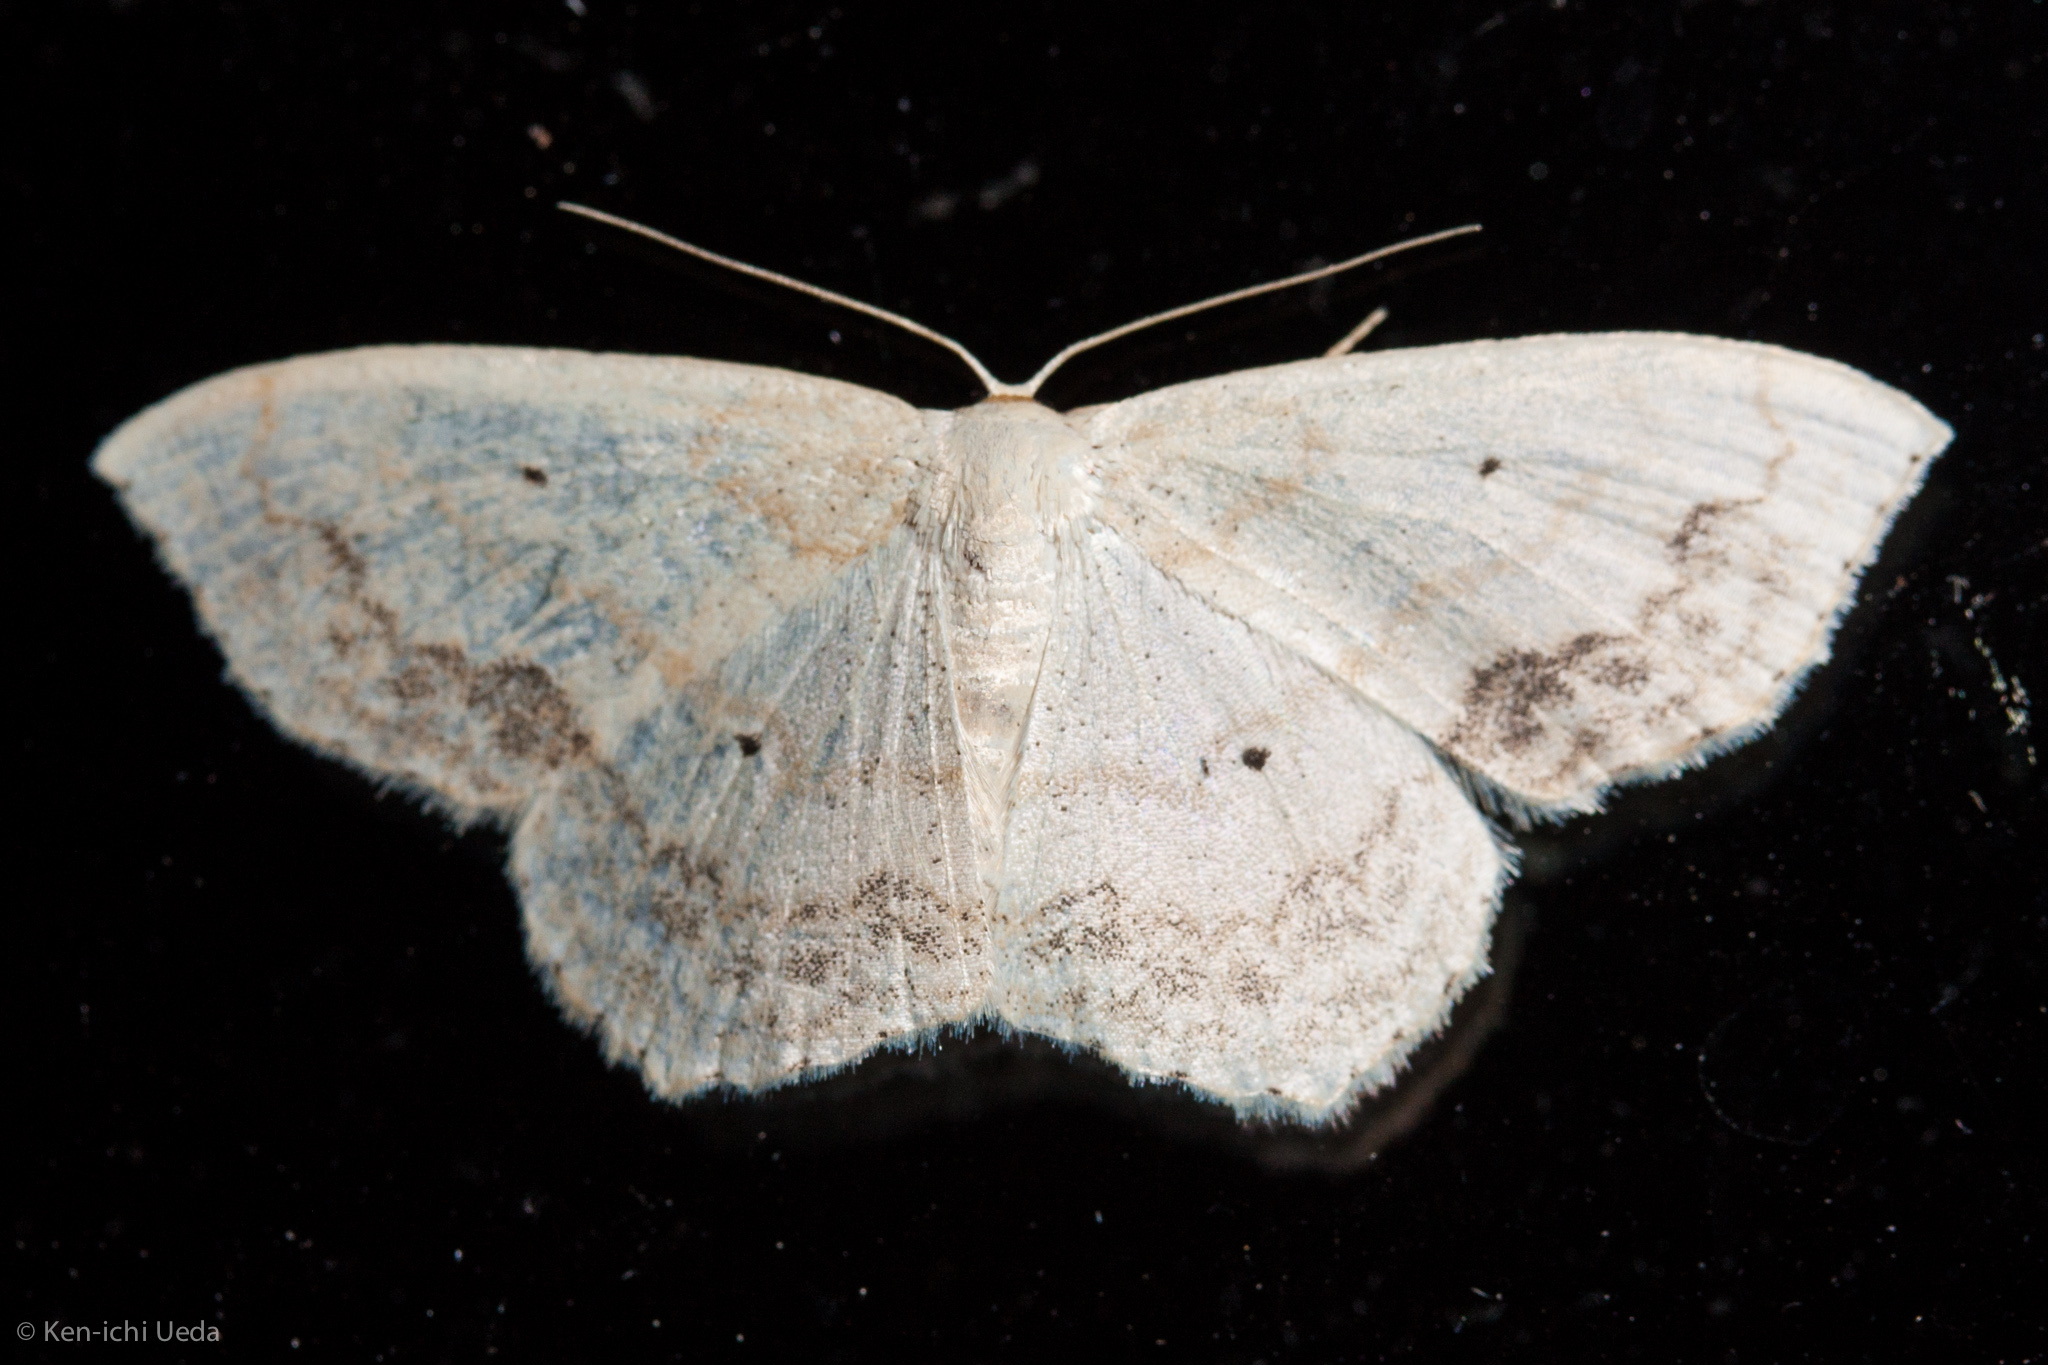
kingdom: Animalia
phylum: Arthropoda
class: Insecta
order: Lepidoptera
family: Geometridae
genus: Scopula
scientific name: Scopula limboundata
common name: Large lace border
